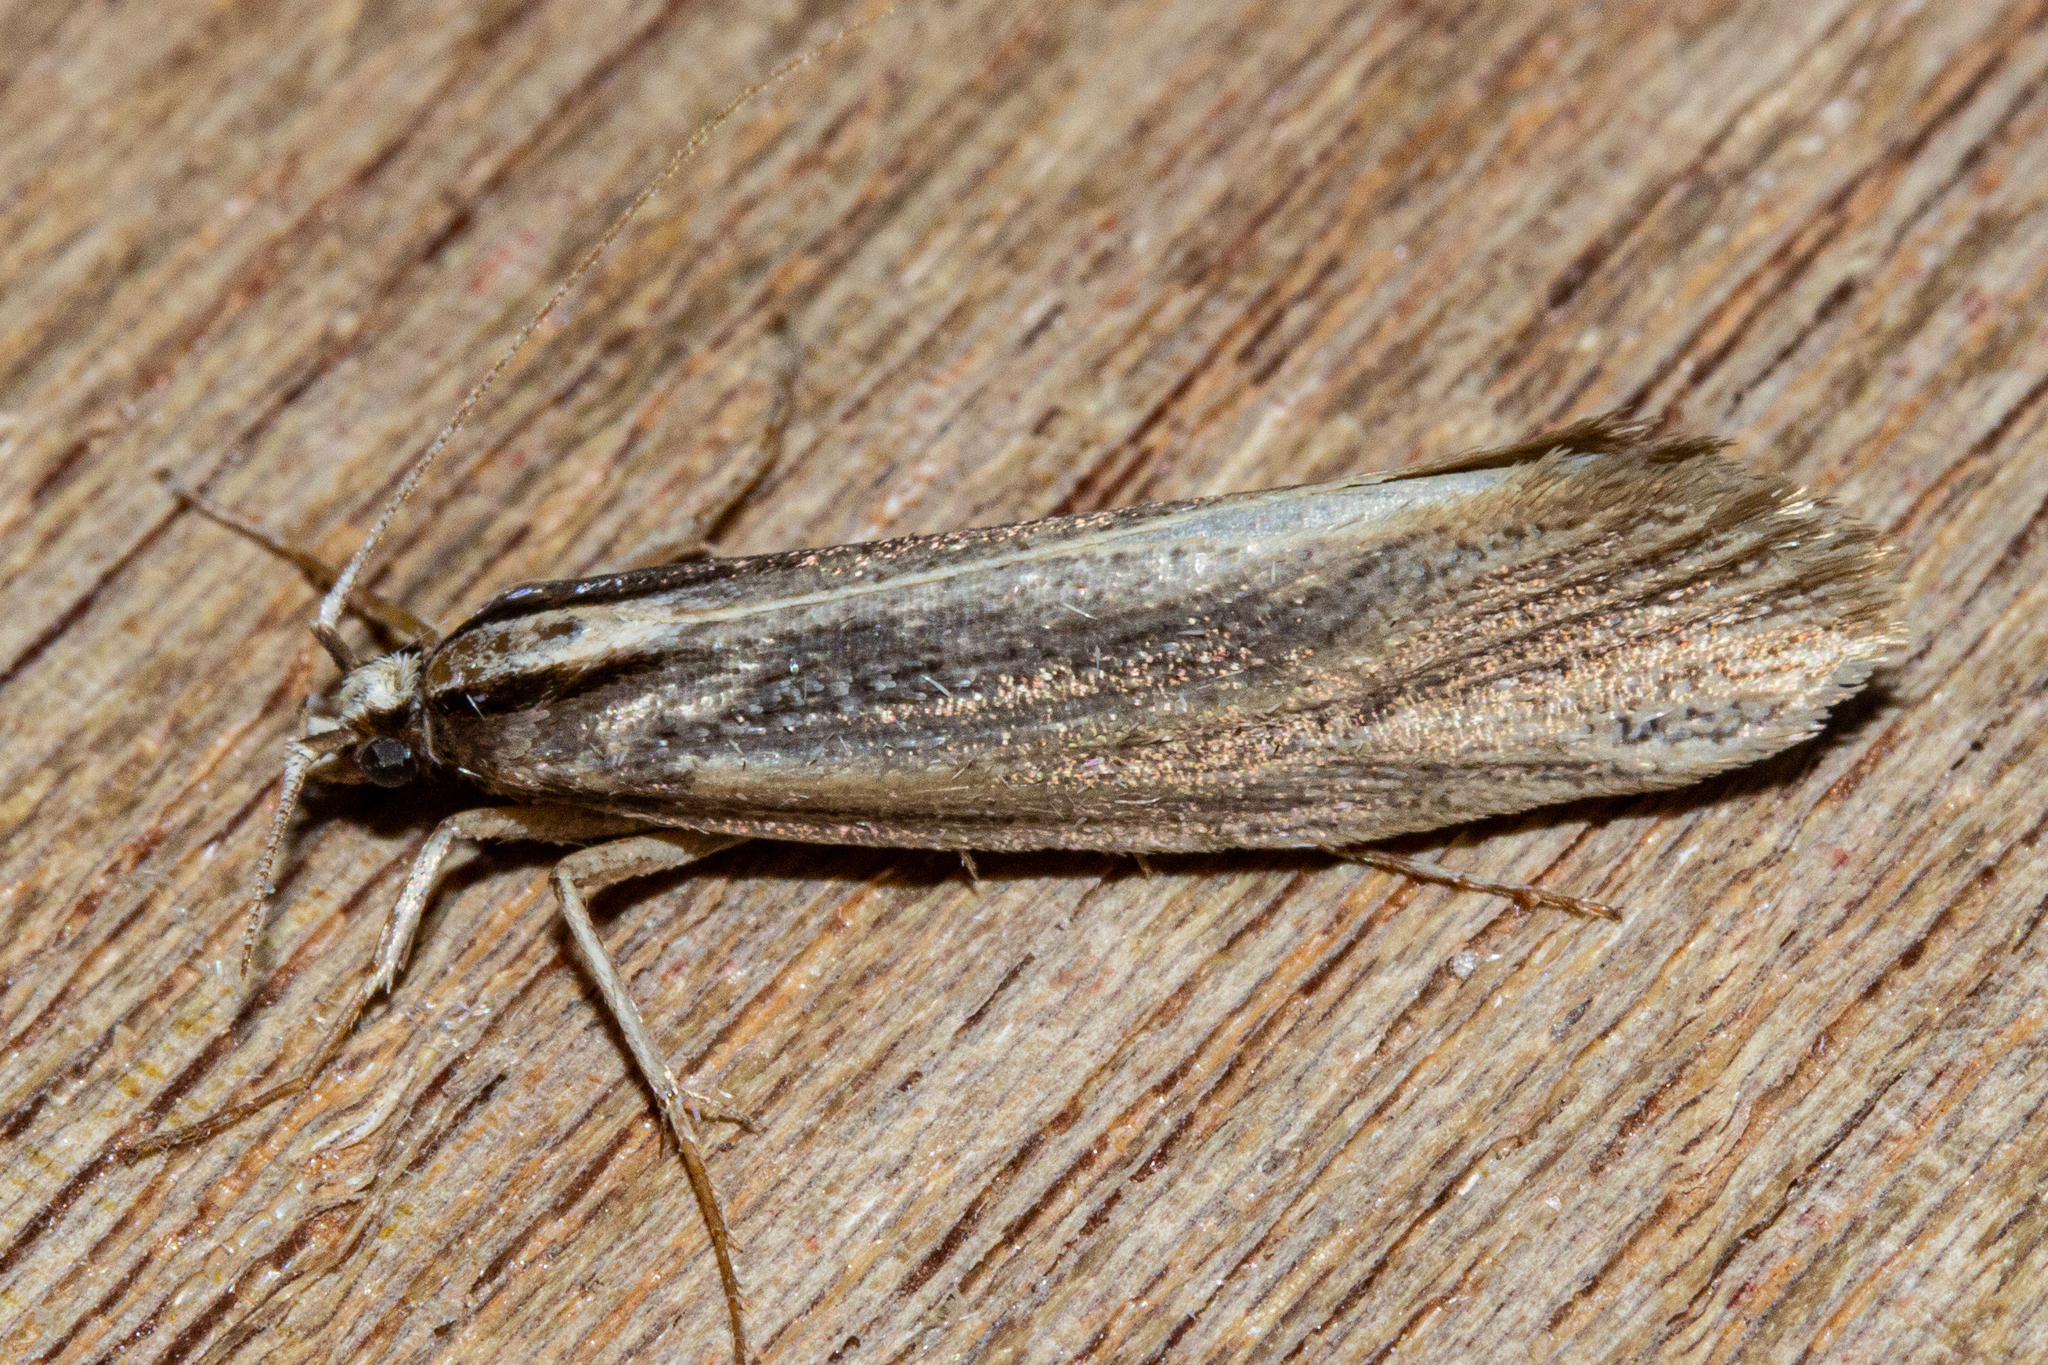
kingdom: Animalia
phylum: Arthropoda
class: Insecta
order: Lepidoptera
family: Plutellidae
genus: Proditrix
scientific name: Proditrix megalynta
